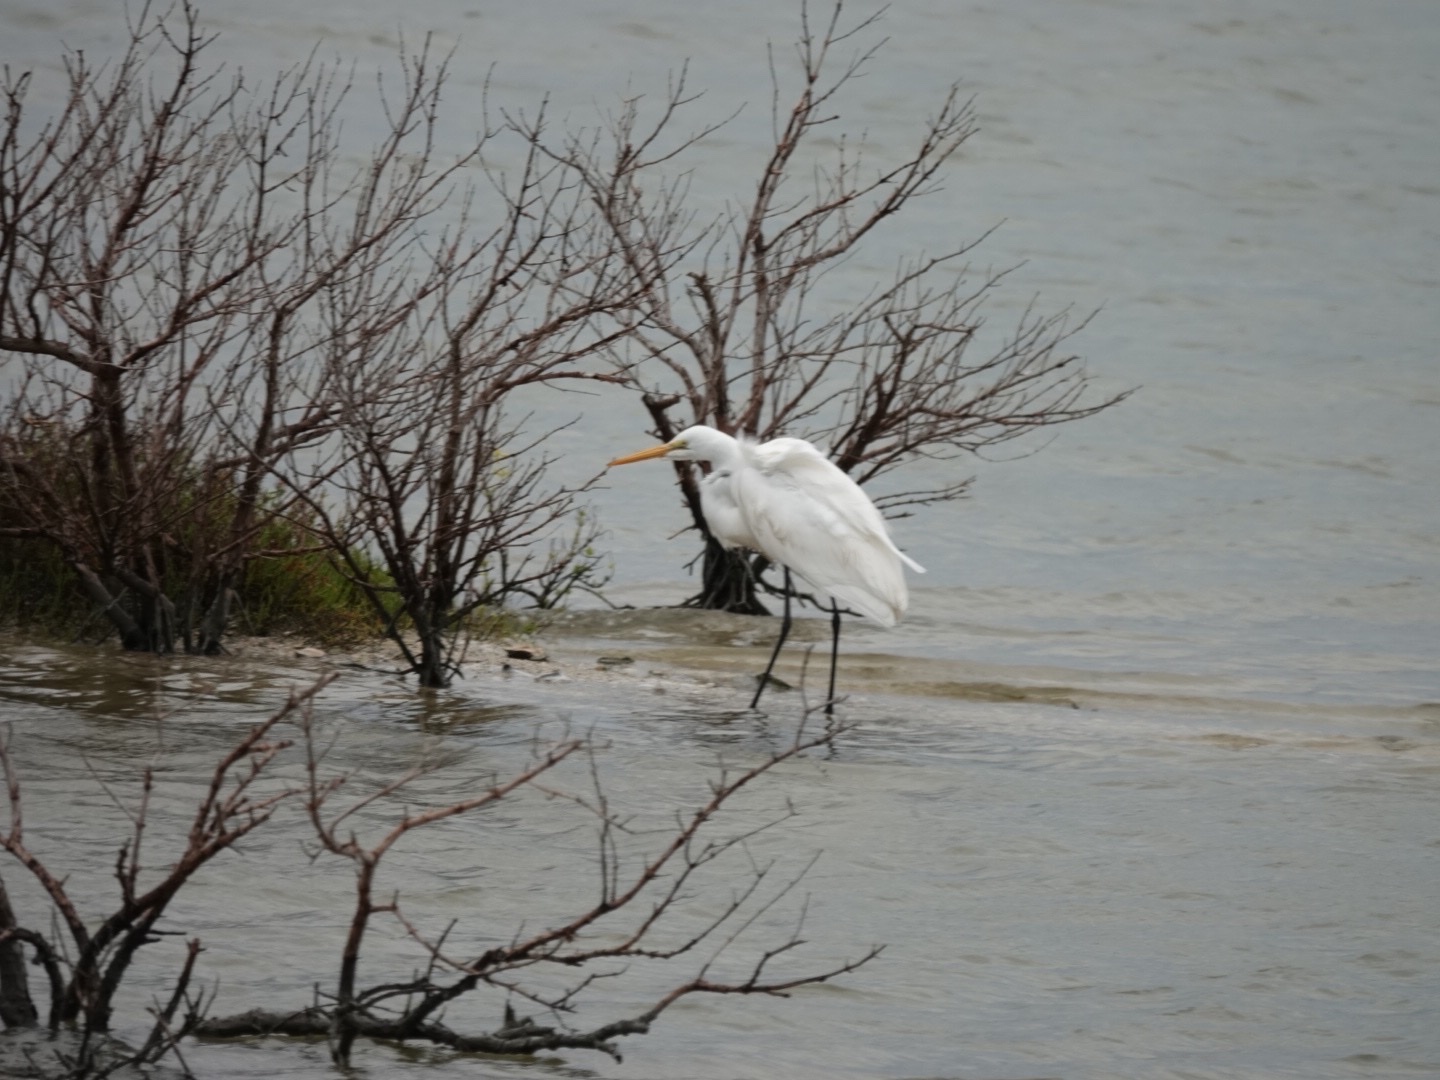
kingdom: Animalia
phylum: Chordata
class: Aves
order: Pelecaniformes
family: Ardeidae
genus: Ardea
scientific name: Ardea alba
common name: Great egret
